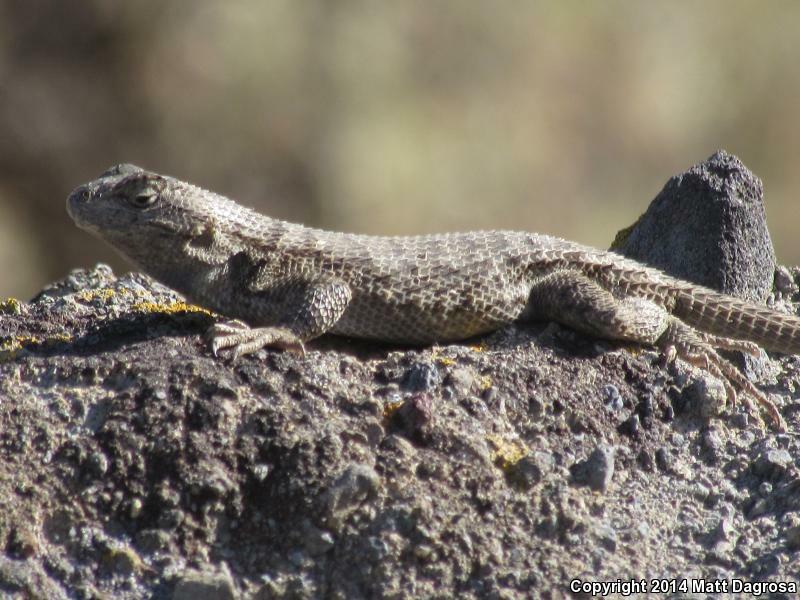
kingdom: Animalia
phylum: Chordata
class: Squamata
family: Phrynosomatidae
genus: Sceloporus
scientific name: Sceloporus occidentalis
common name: Western fence lizard
